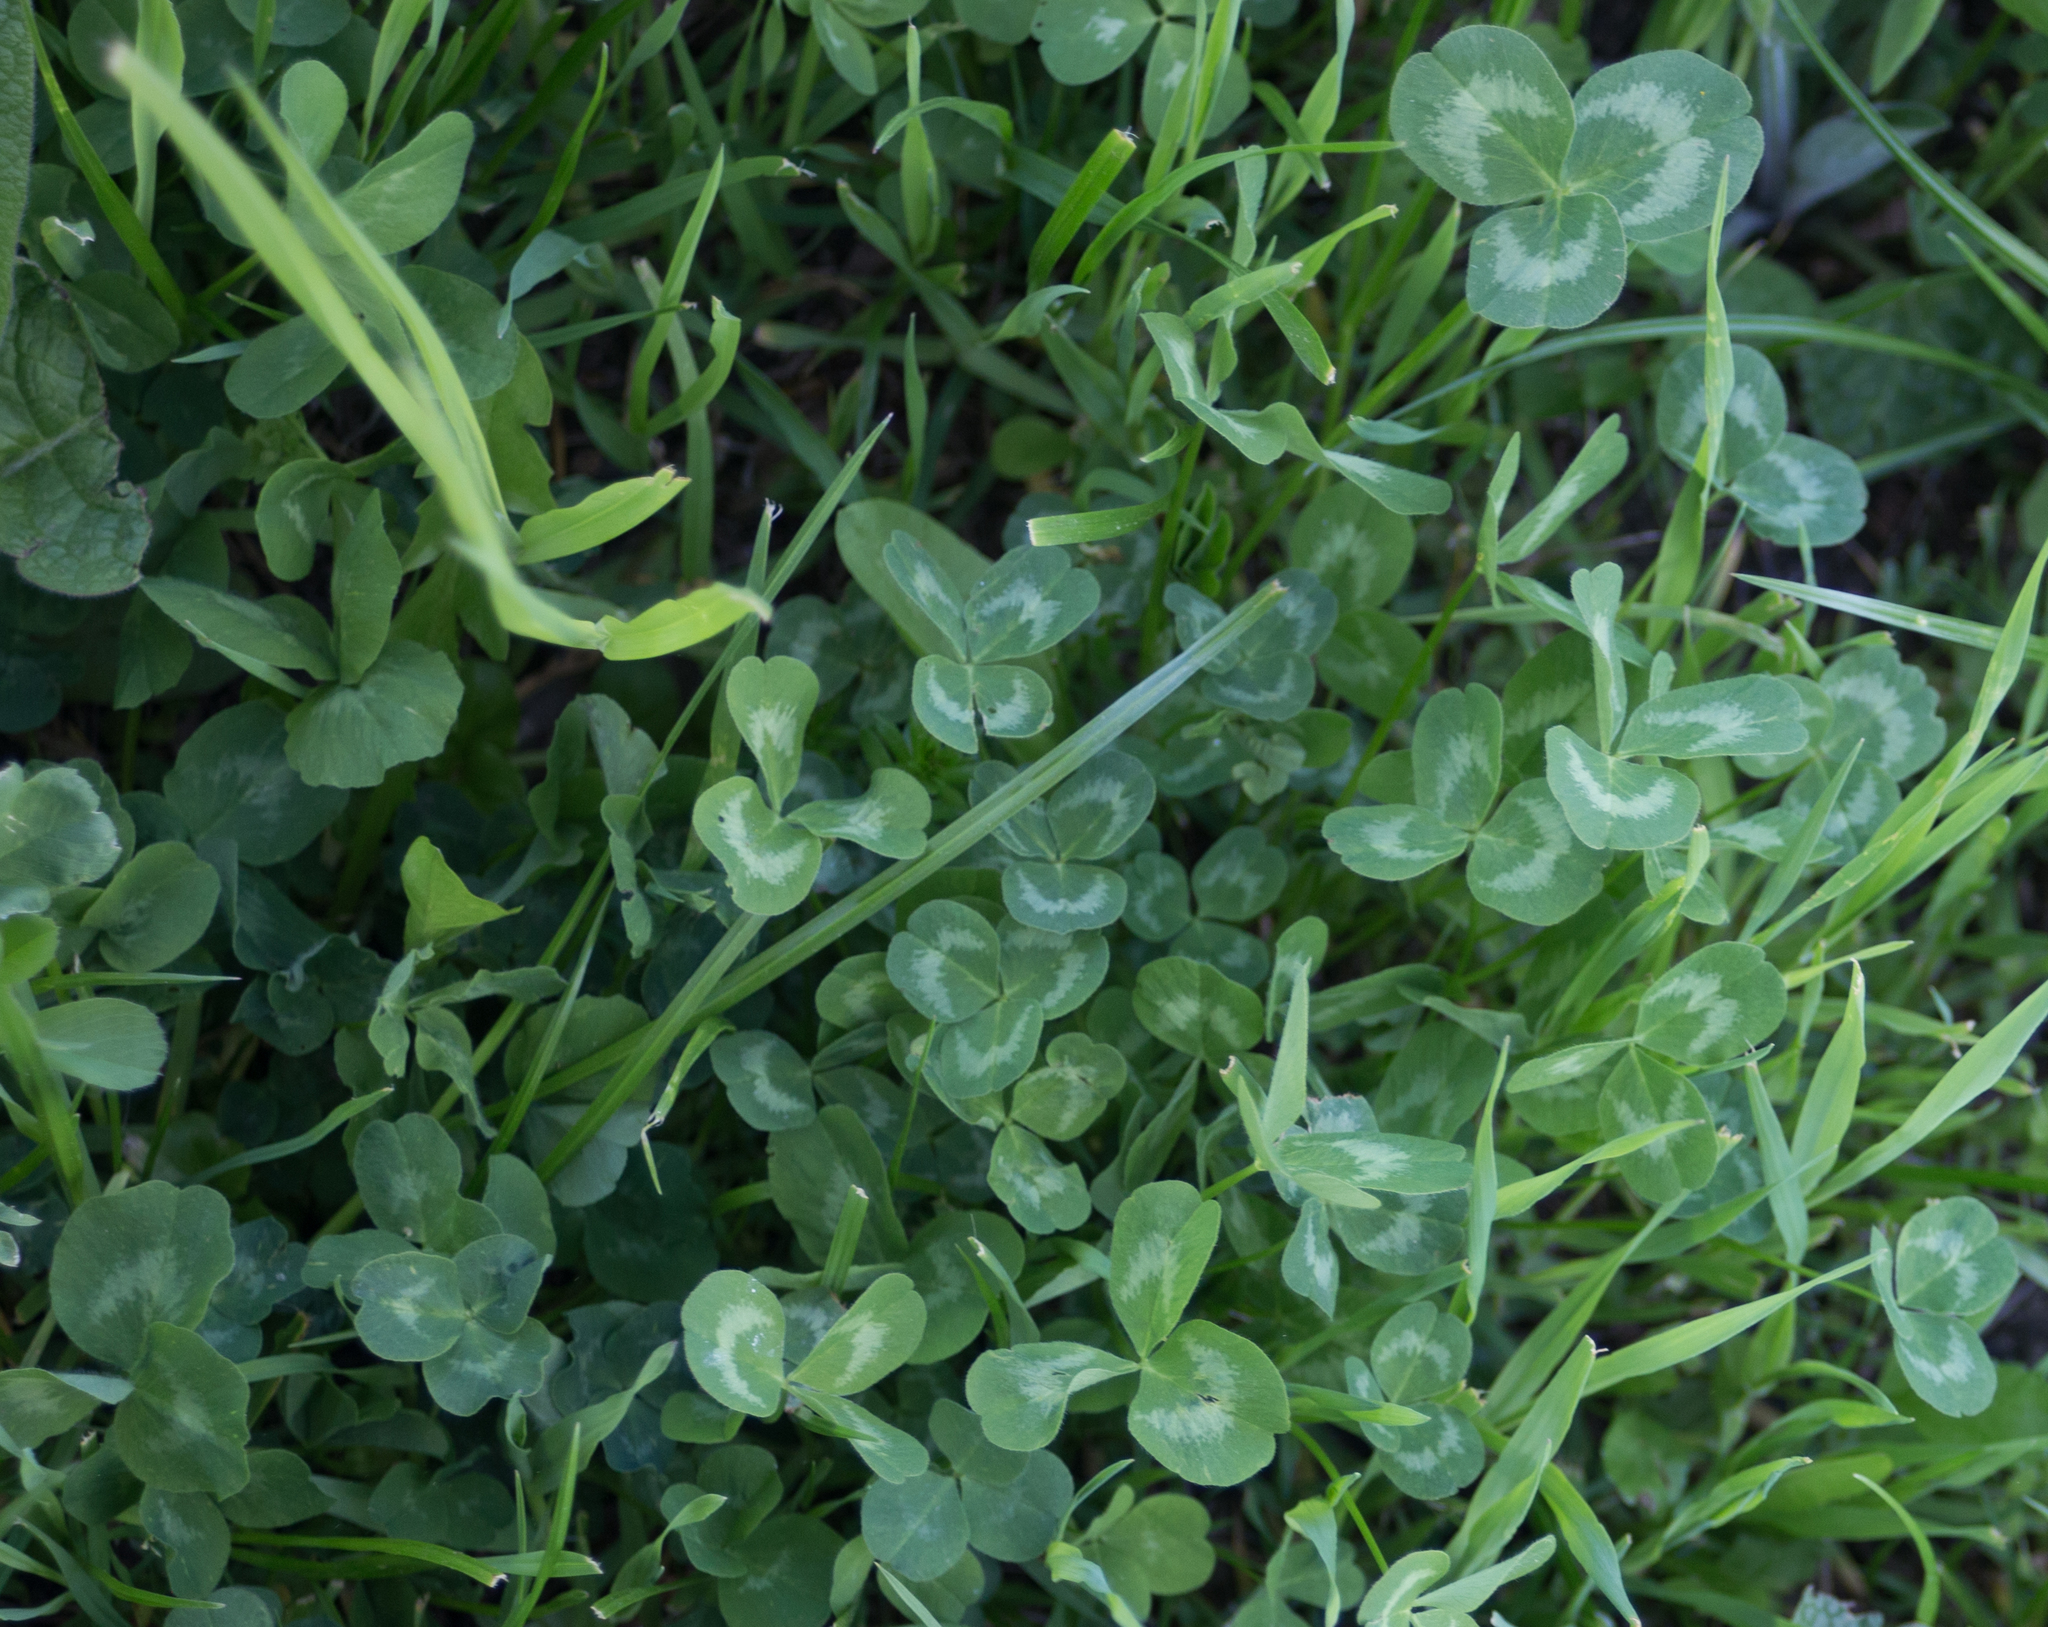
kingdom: Plantae
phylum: Tracheophyta
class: Magnoliopsida
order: Fabales
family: Fabaceae
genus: Trifolium
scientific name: Trifolium repens
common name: White clover
